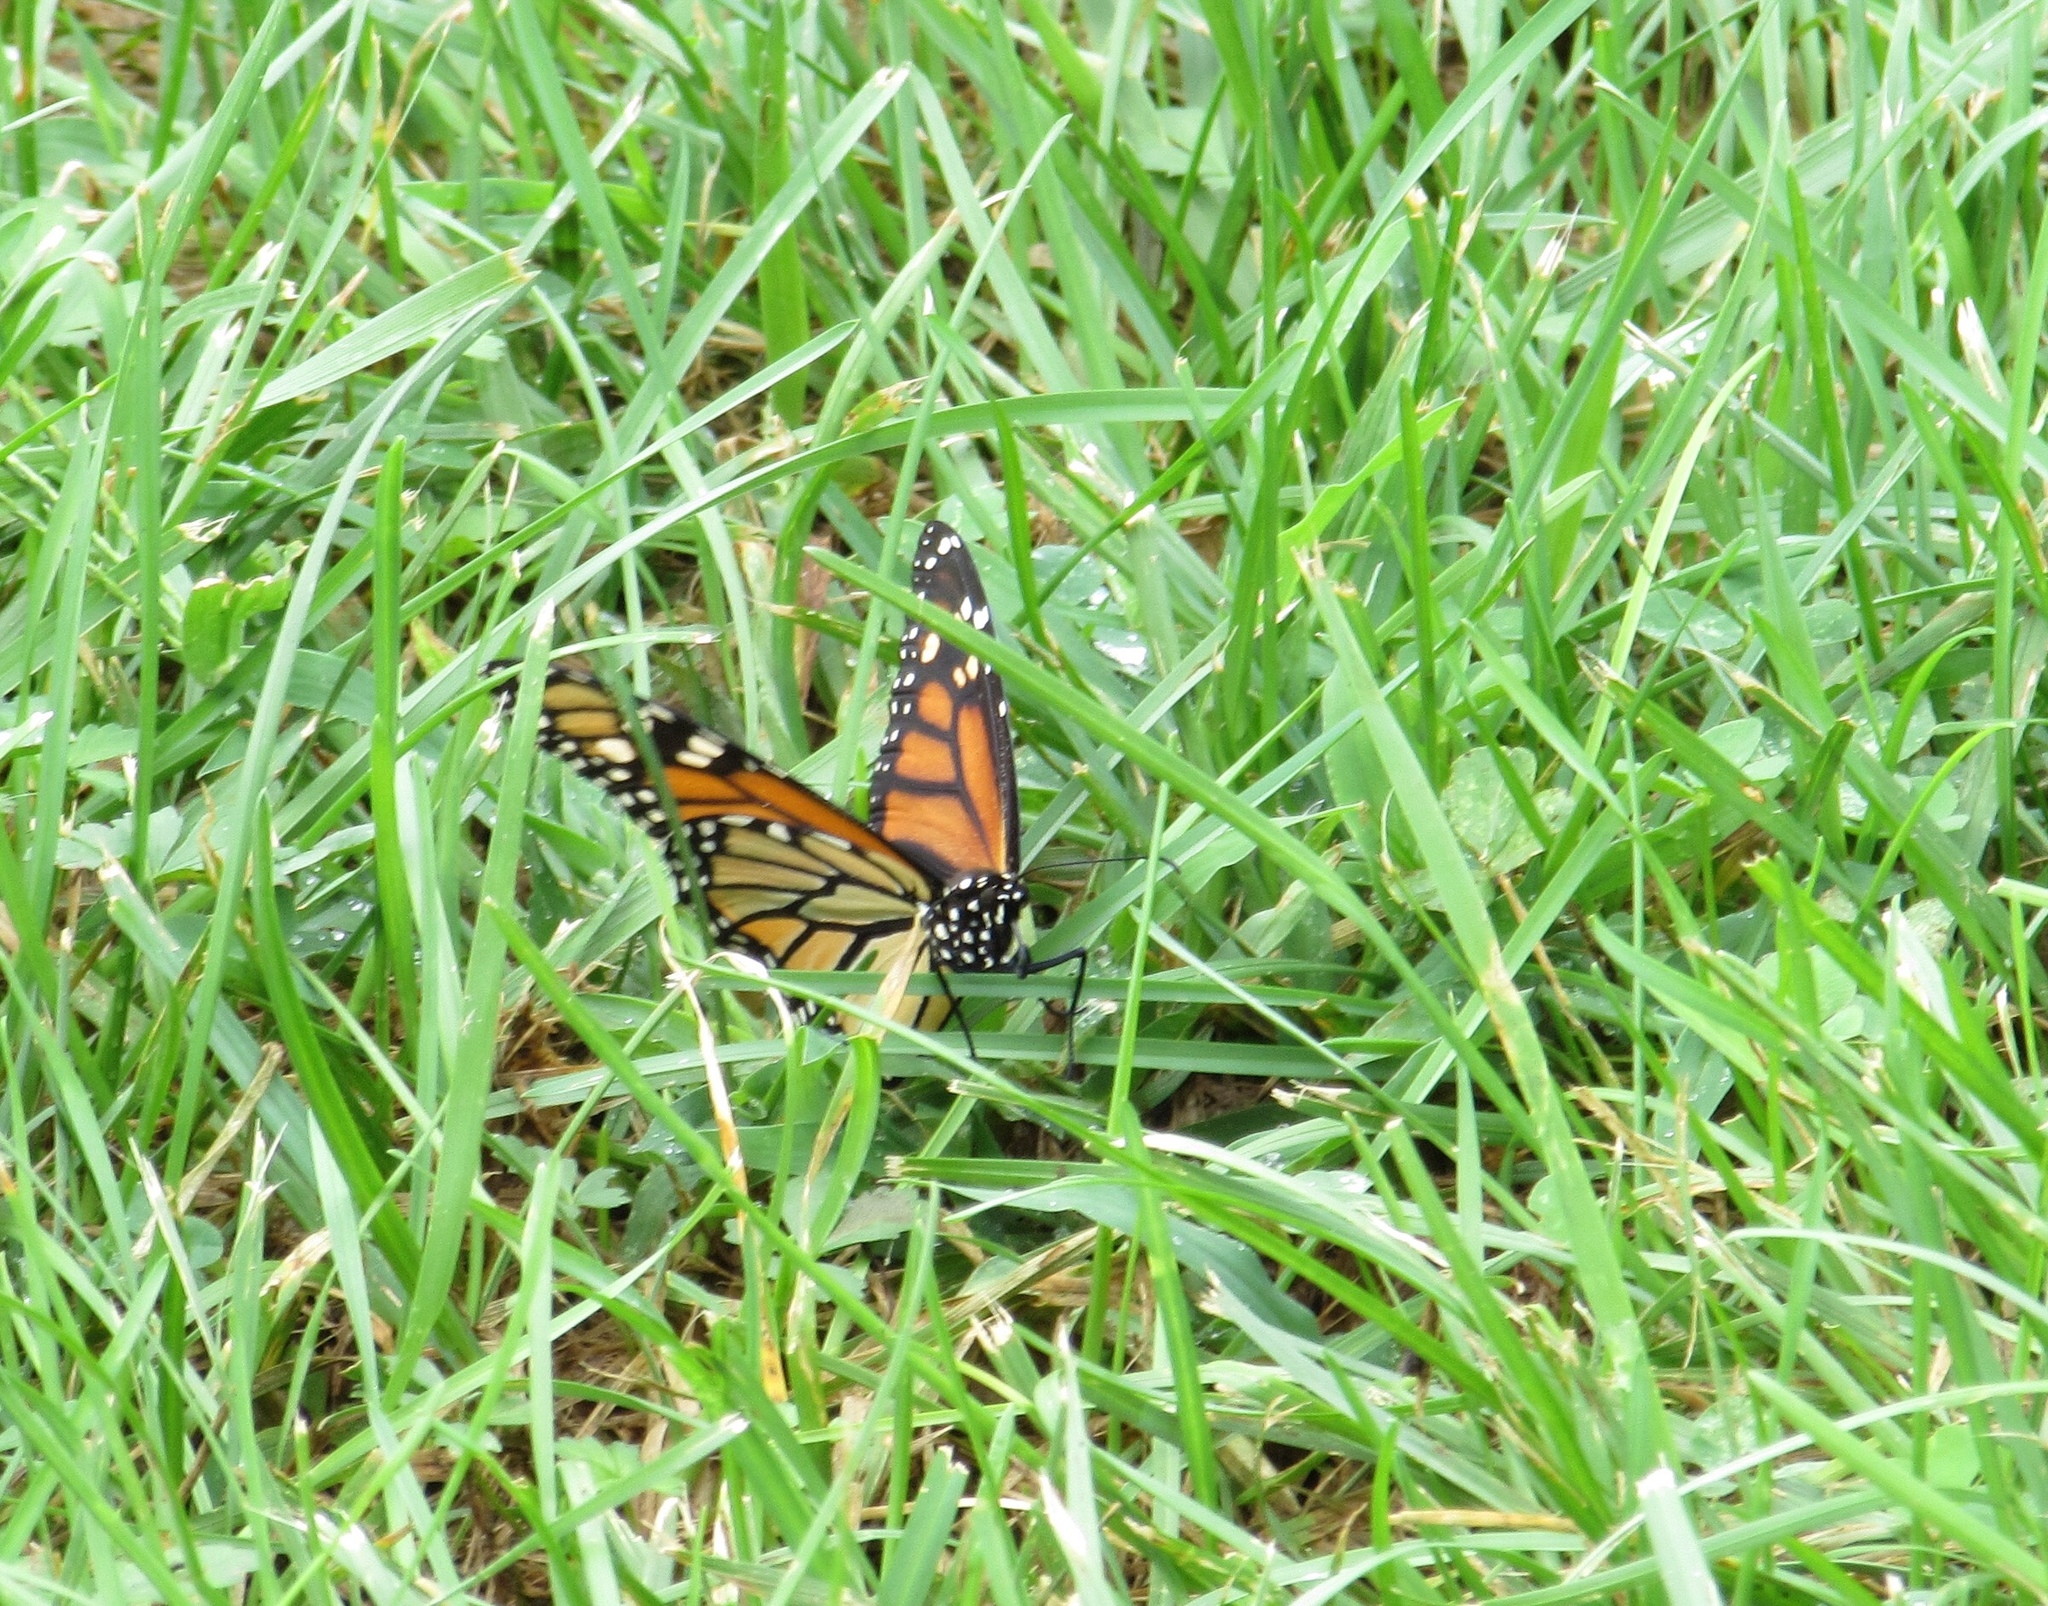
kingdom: Animalia
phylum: Arthropoda
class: Insecta
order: Lepidoptera
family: Nymphalidae
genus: Danaus
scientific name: Danaus plexippus
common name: Monarch
